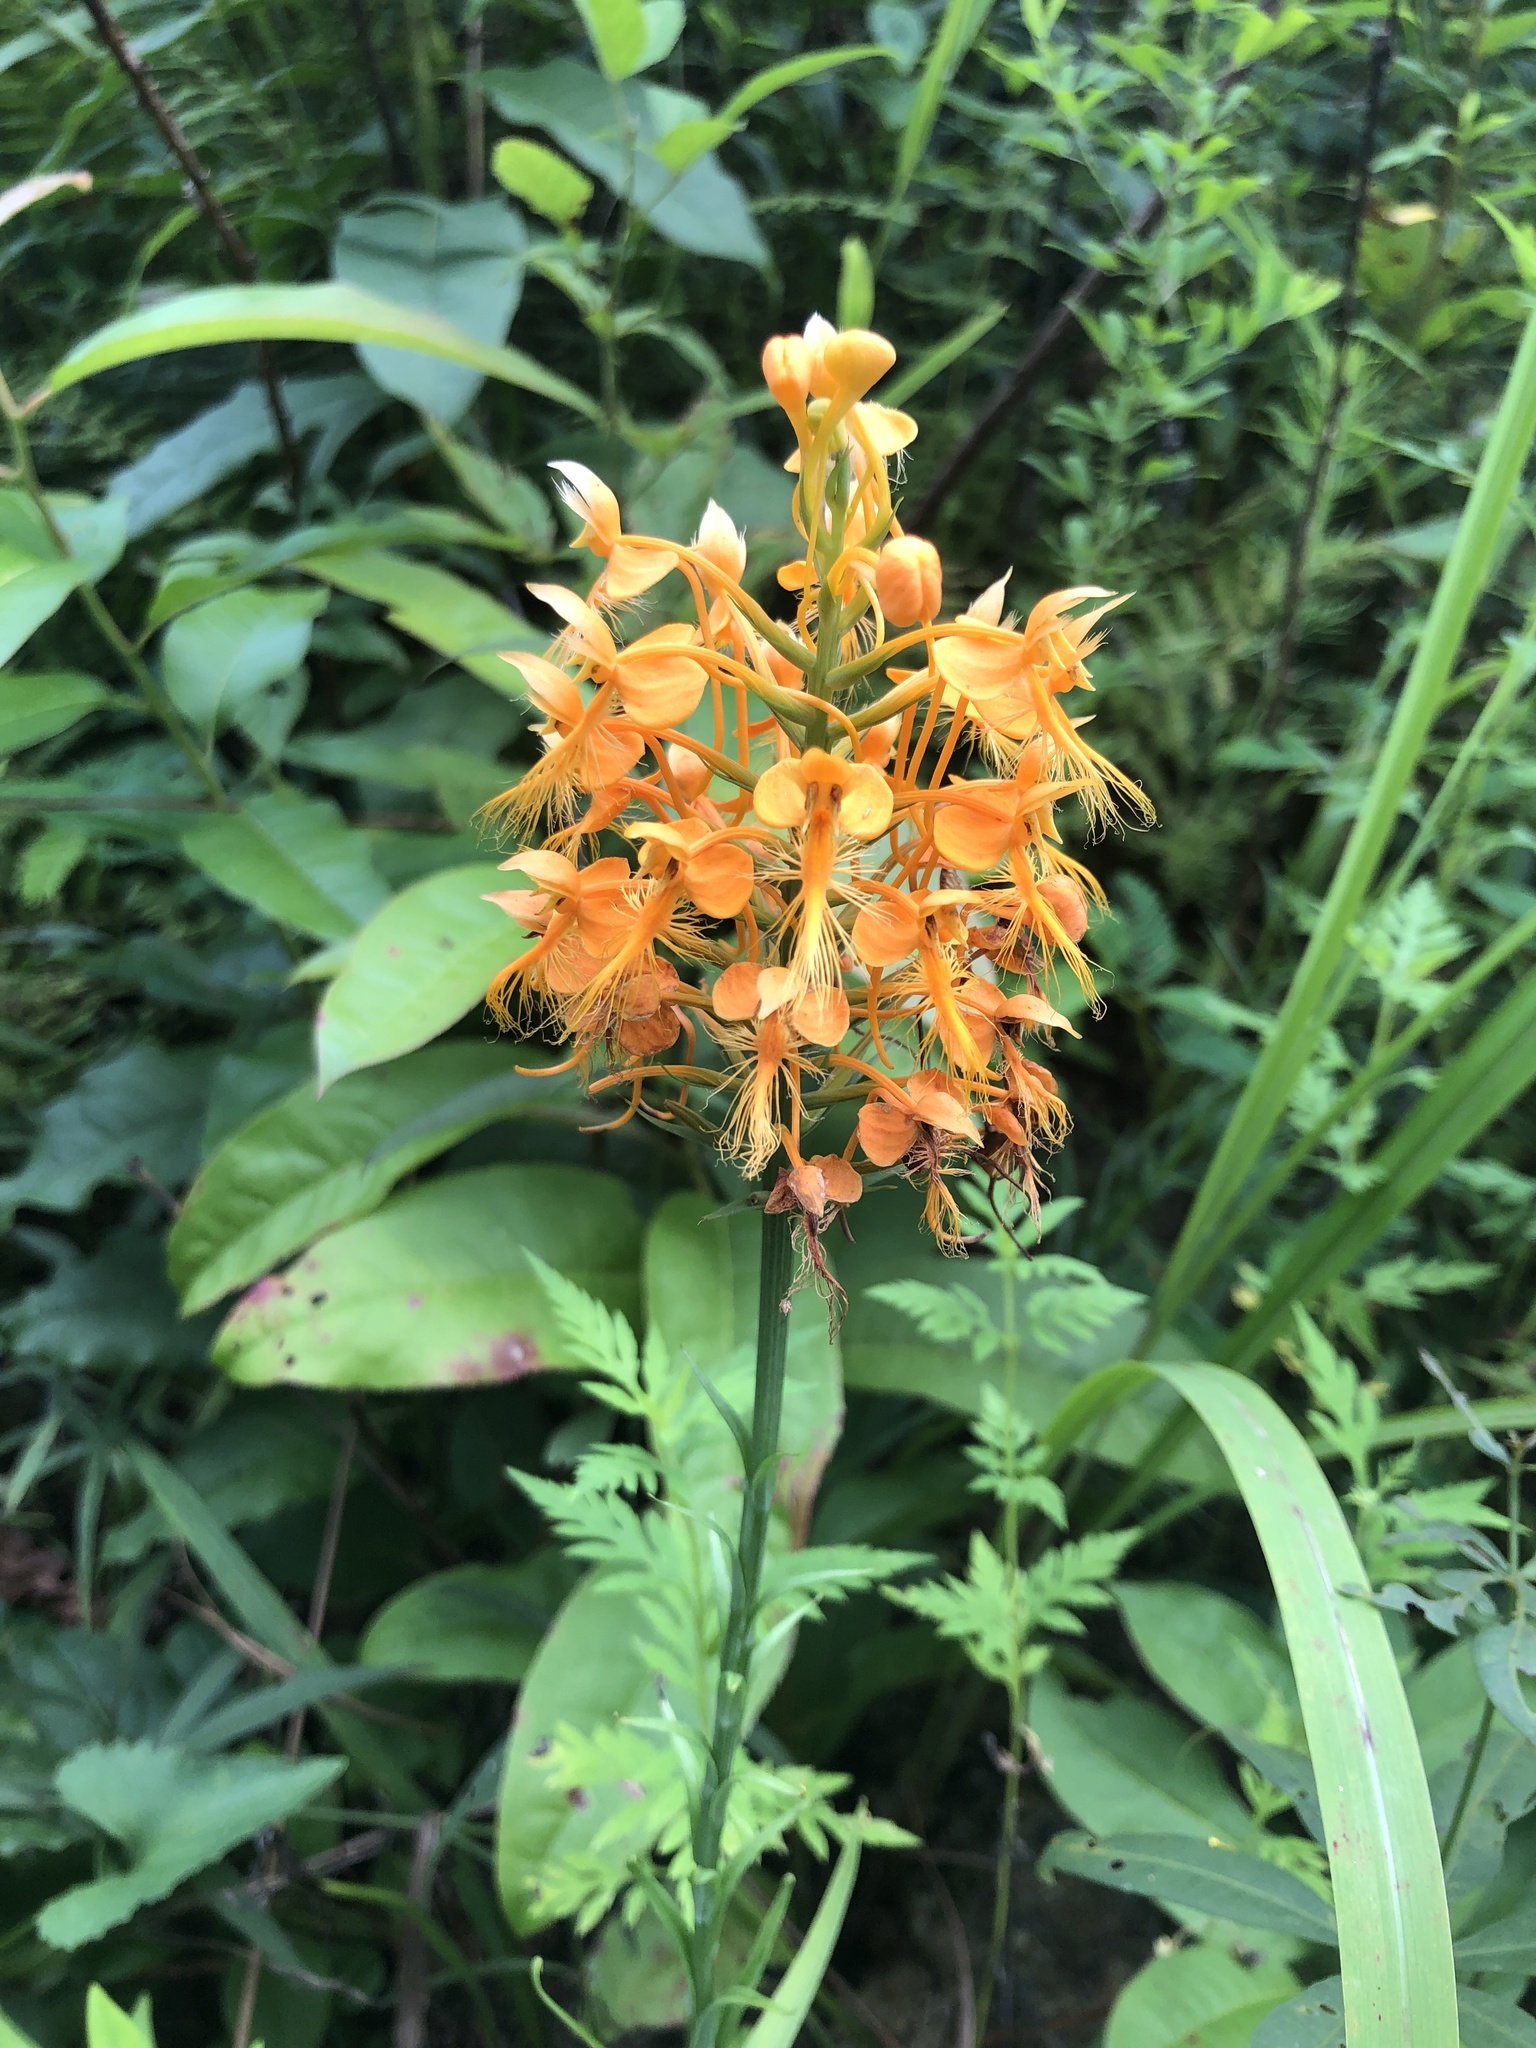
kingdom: Plantae
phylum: Tracheophyta
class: Liliopsida
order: Asparagales
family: Orchidaceae
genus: Platanthera
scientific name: Platanthera ciliaris
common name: Yellow fringed orchid
